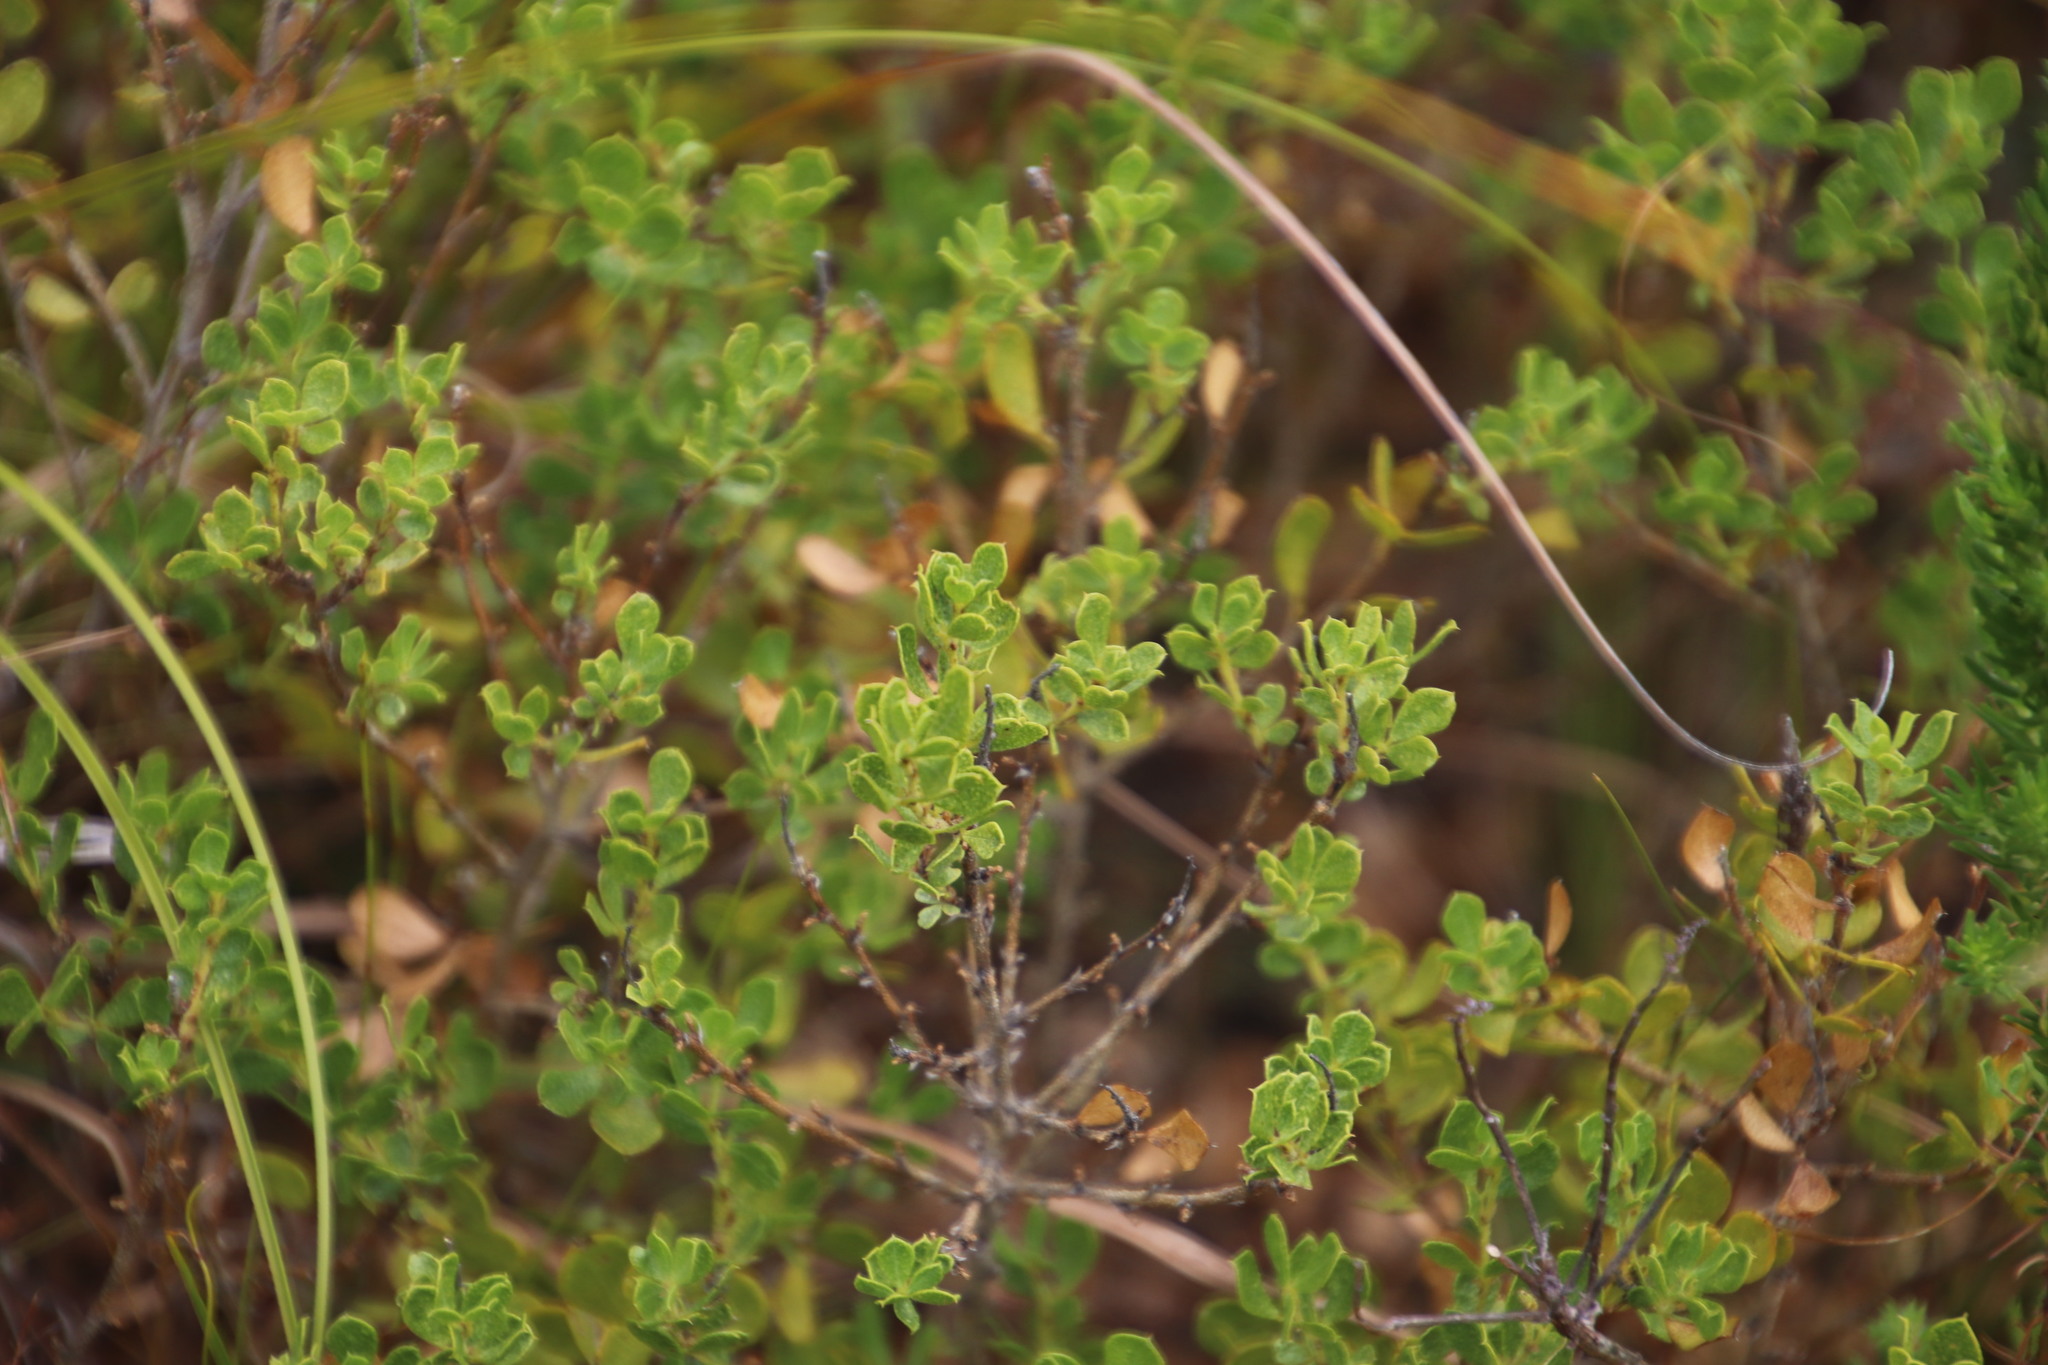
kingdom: Plantae
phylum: Tracheophyta
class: Magnoliopsida
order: Fabales
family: Fabaceae
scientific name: Fabaceae
